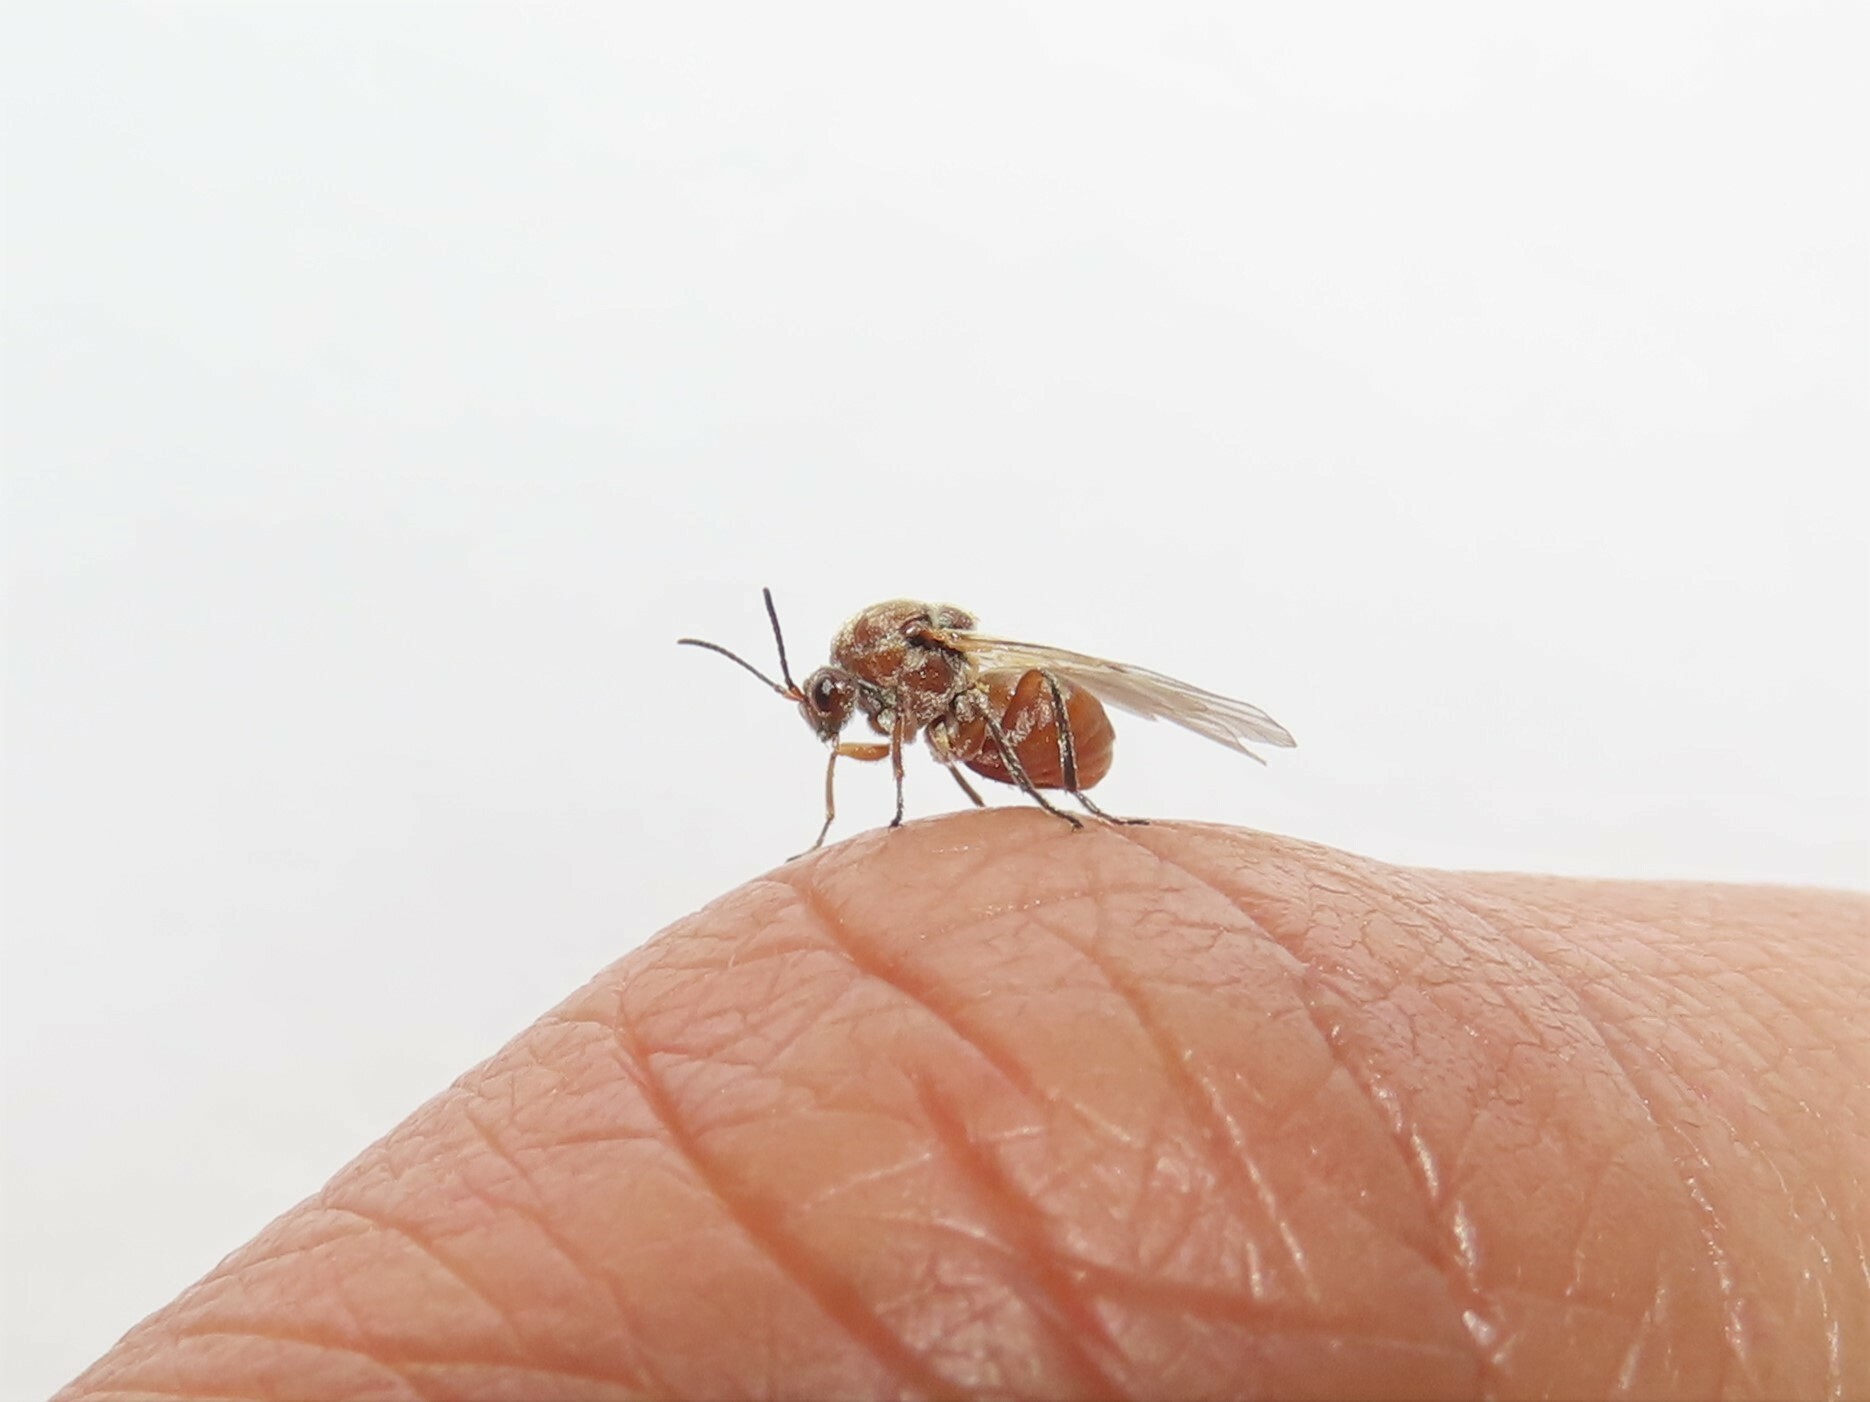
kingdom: Animalia
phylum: Arthropoda
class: Insecta
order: Hymenoptera
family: Cynipidae
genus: Andricus
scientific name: Andricus quercustozae
